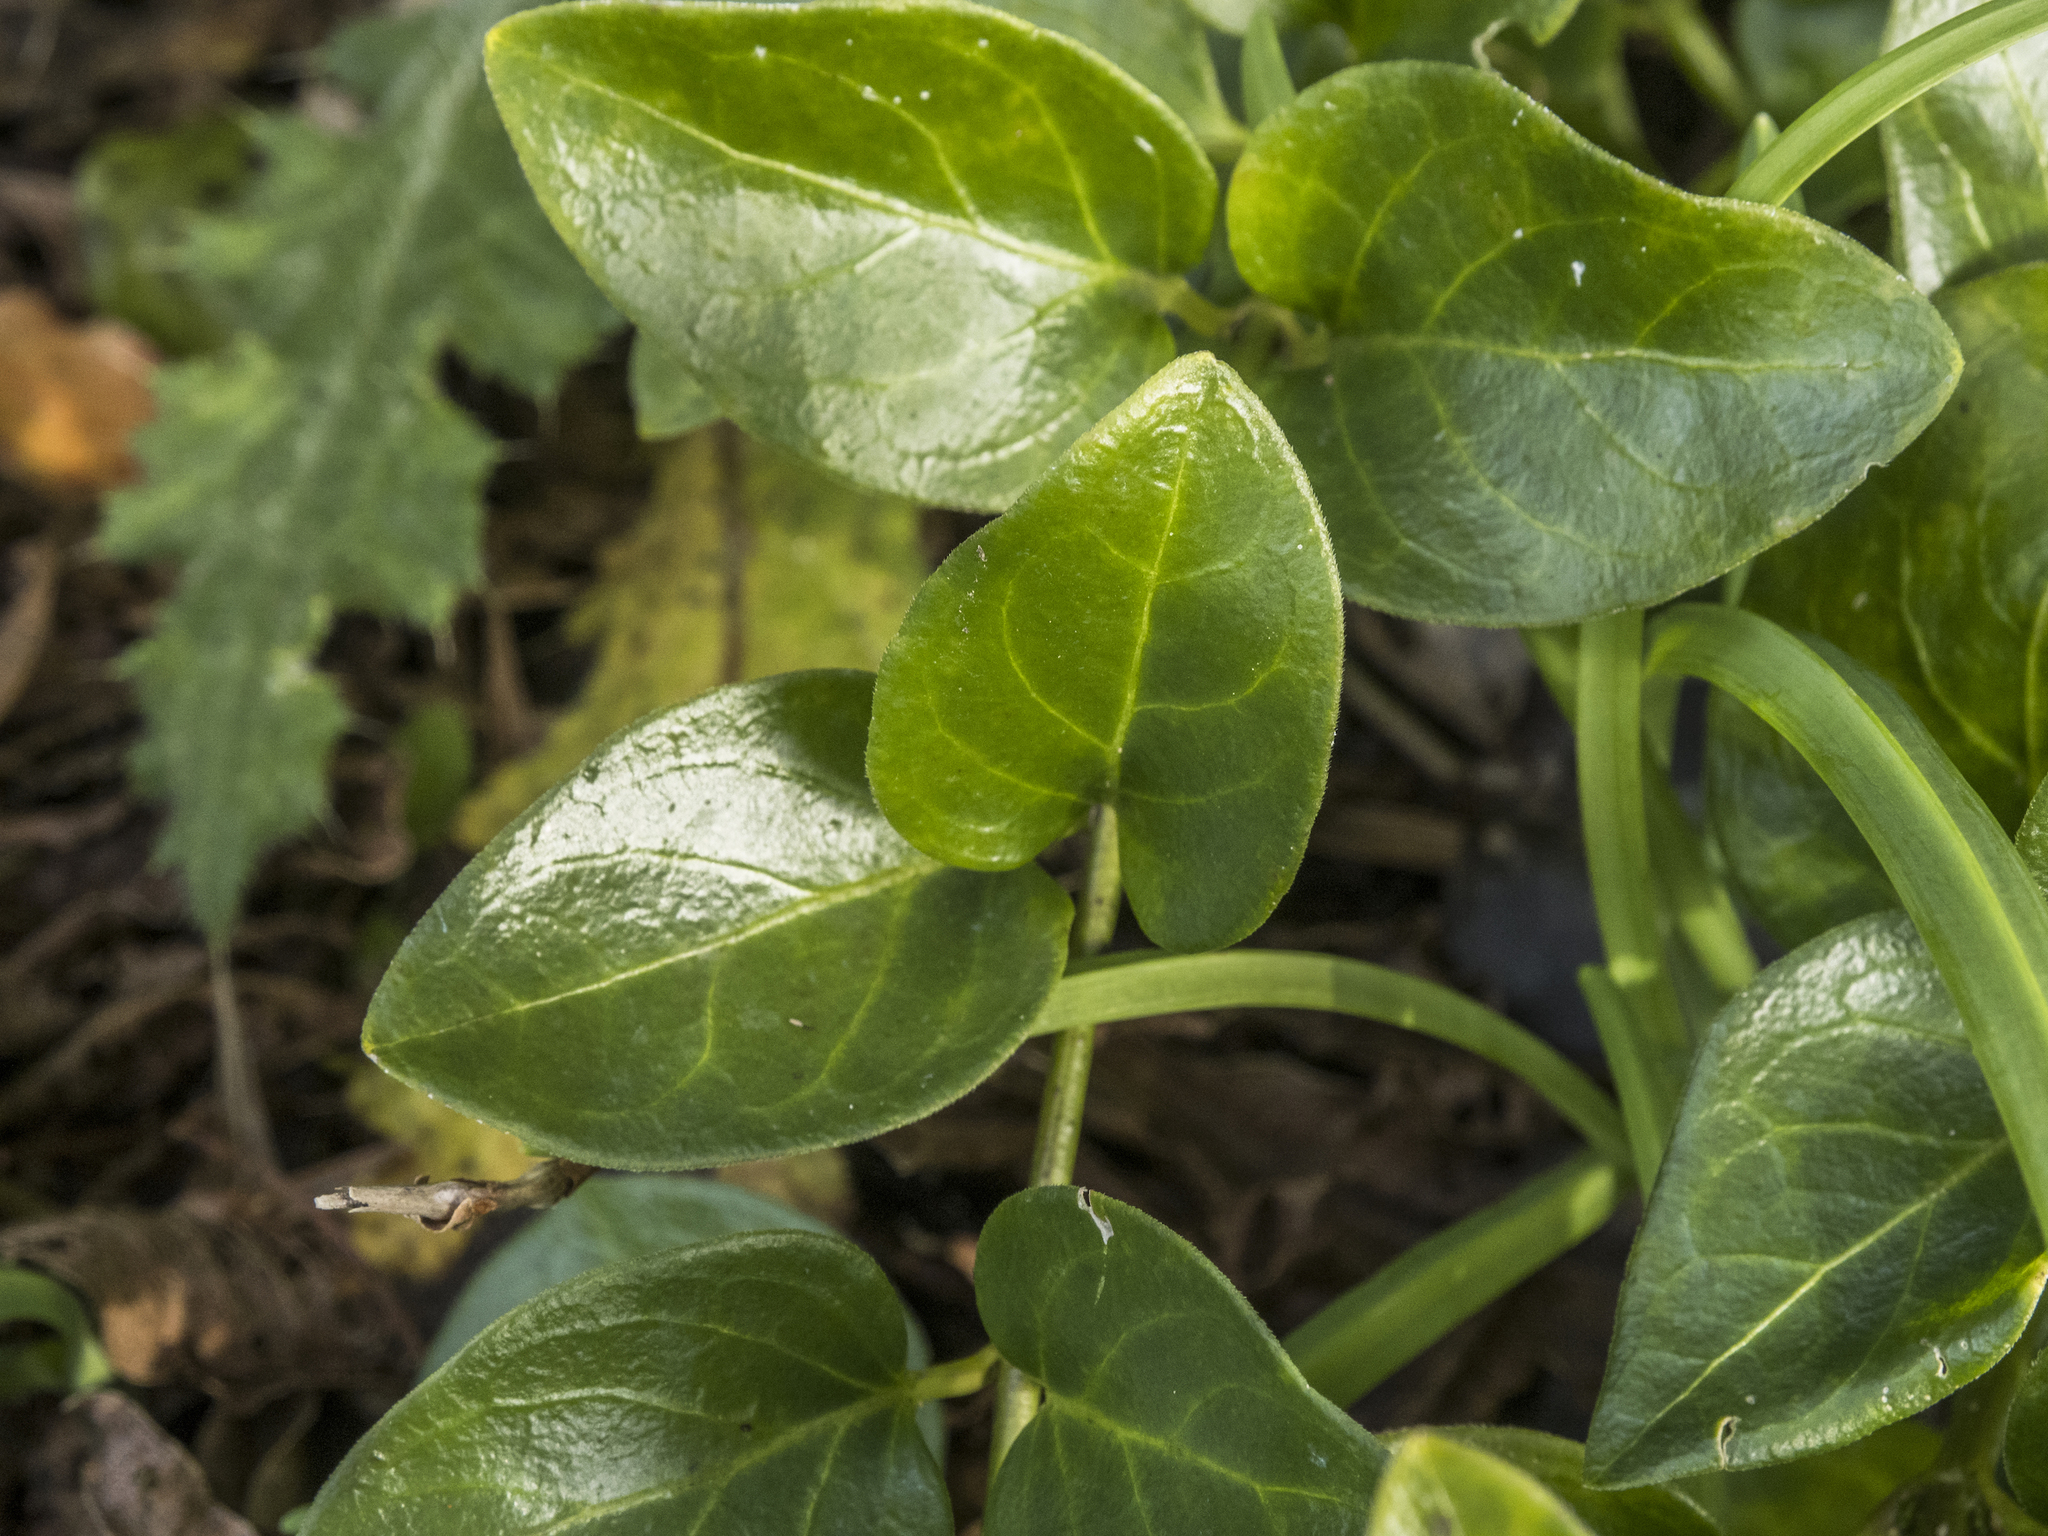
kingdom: Plantae
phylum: Tracheophyta
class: Magnoliopsida
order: Gentianales
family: Apocynaceae
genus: Vinca
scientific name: Vinca major
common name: Greater periwinkle
